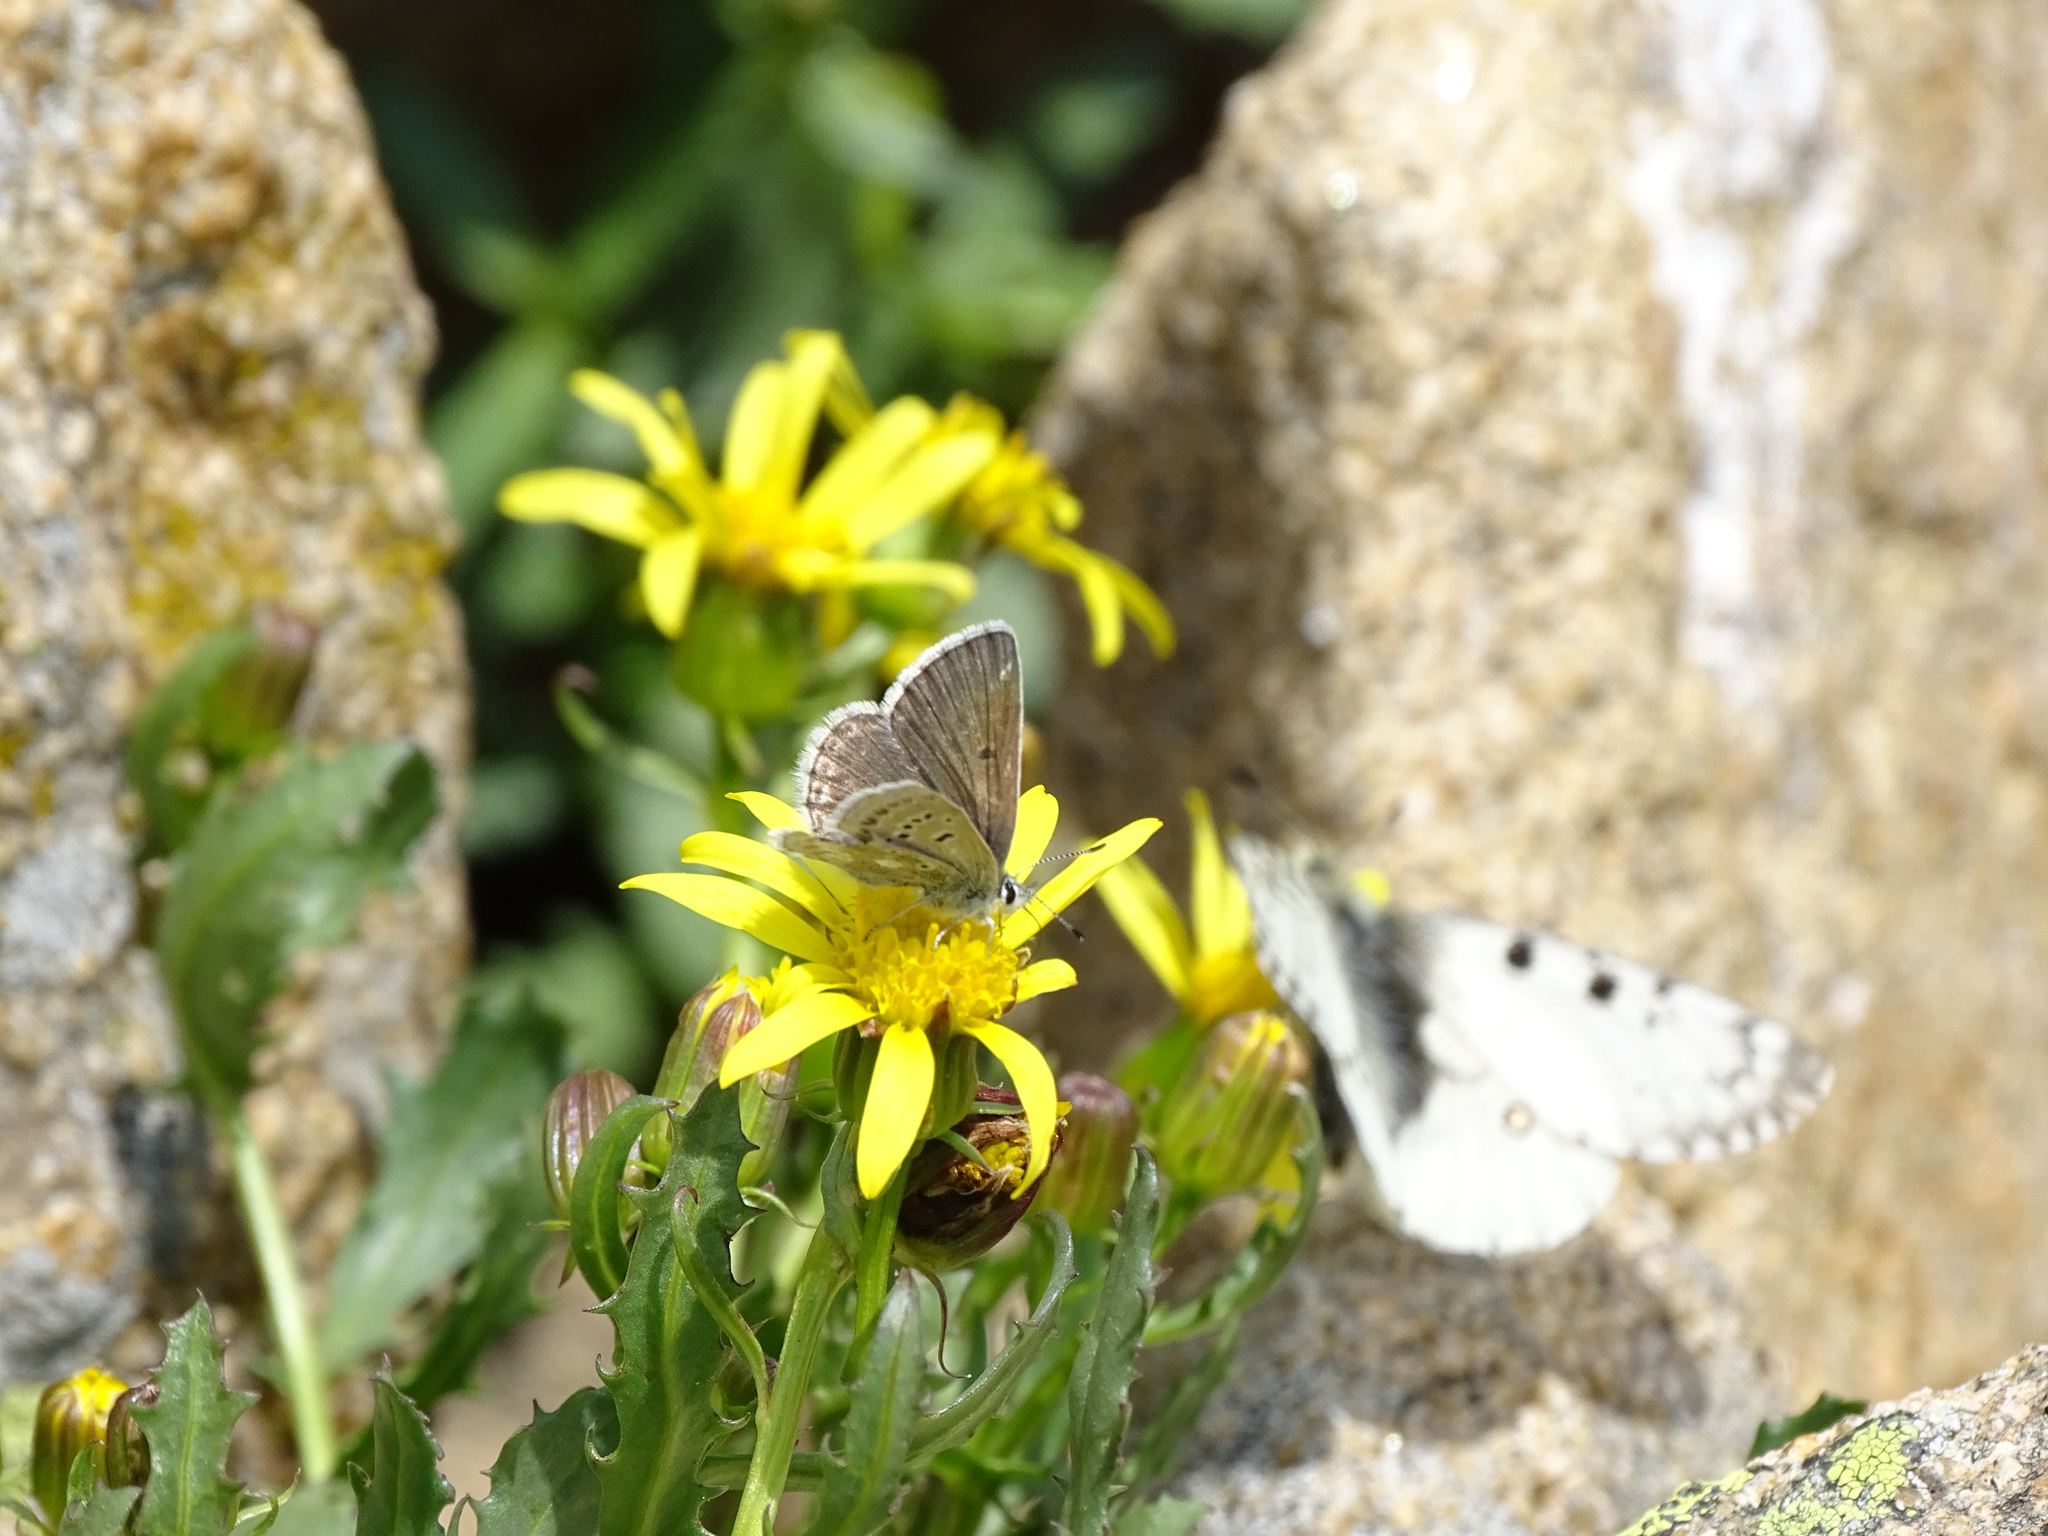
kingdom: Animalia
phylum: Arthropoda
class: Insecta
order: Lepidoptera
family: Lycaenidae
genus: Agriades
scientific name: Agriades glandon
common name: Glandon blue
